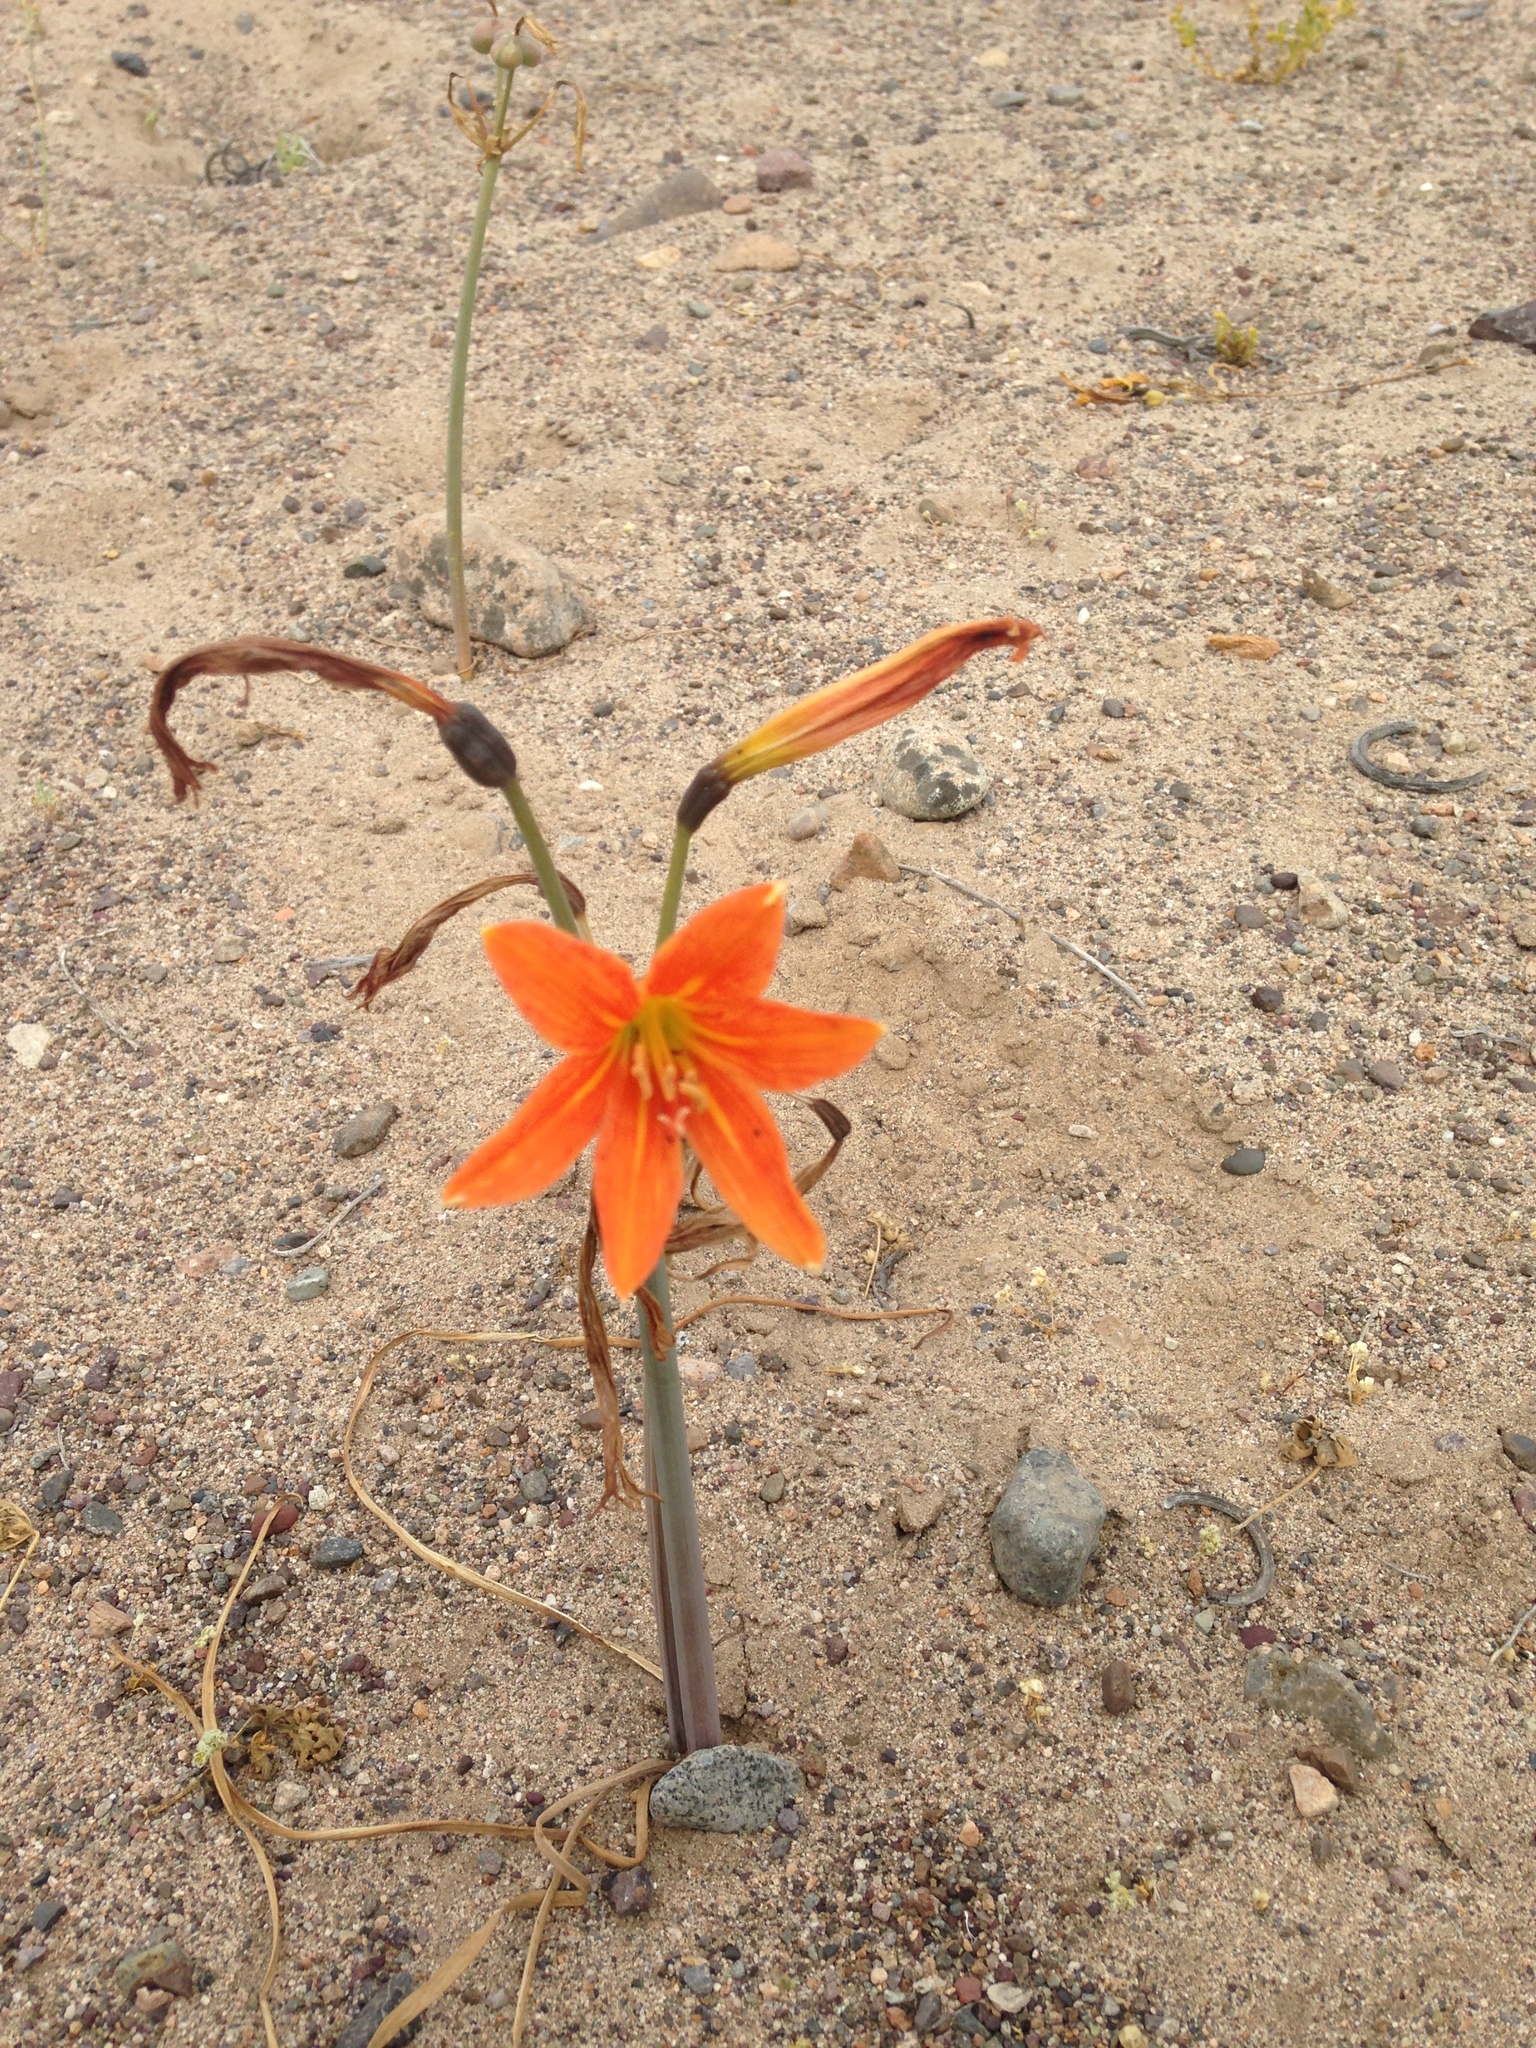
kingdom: Plantae
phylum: Tracheophyta
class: Liliopsida
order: Asparagales
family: Amaryllidaceae
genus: Zephyranthes
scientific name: Zephyranthes bagnoldii
